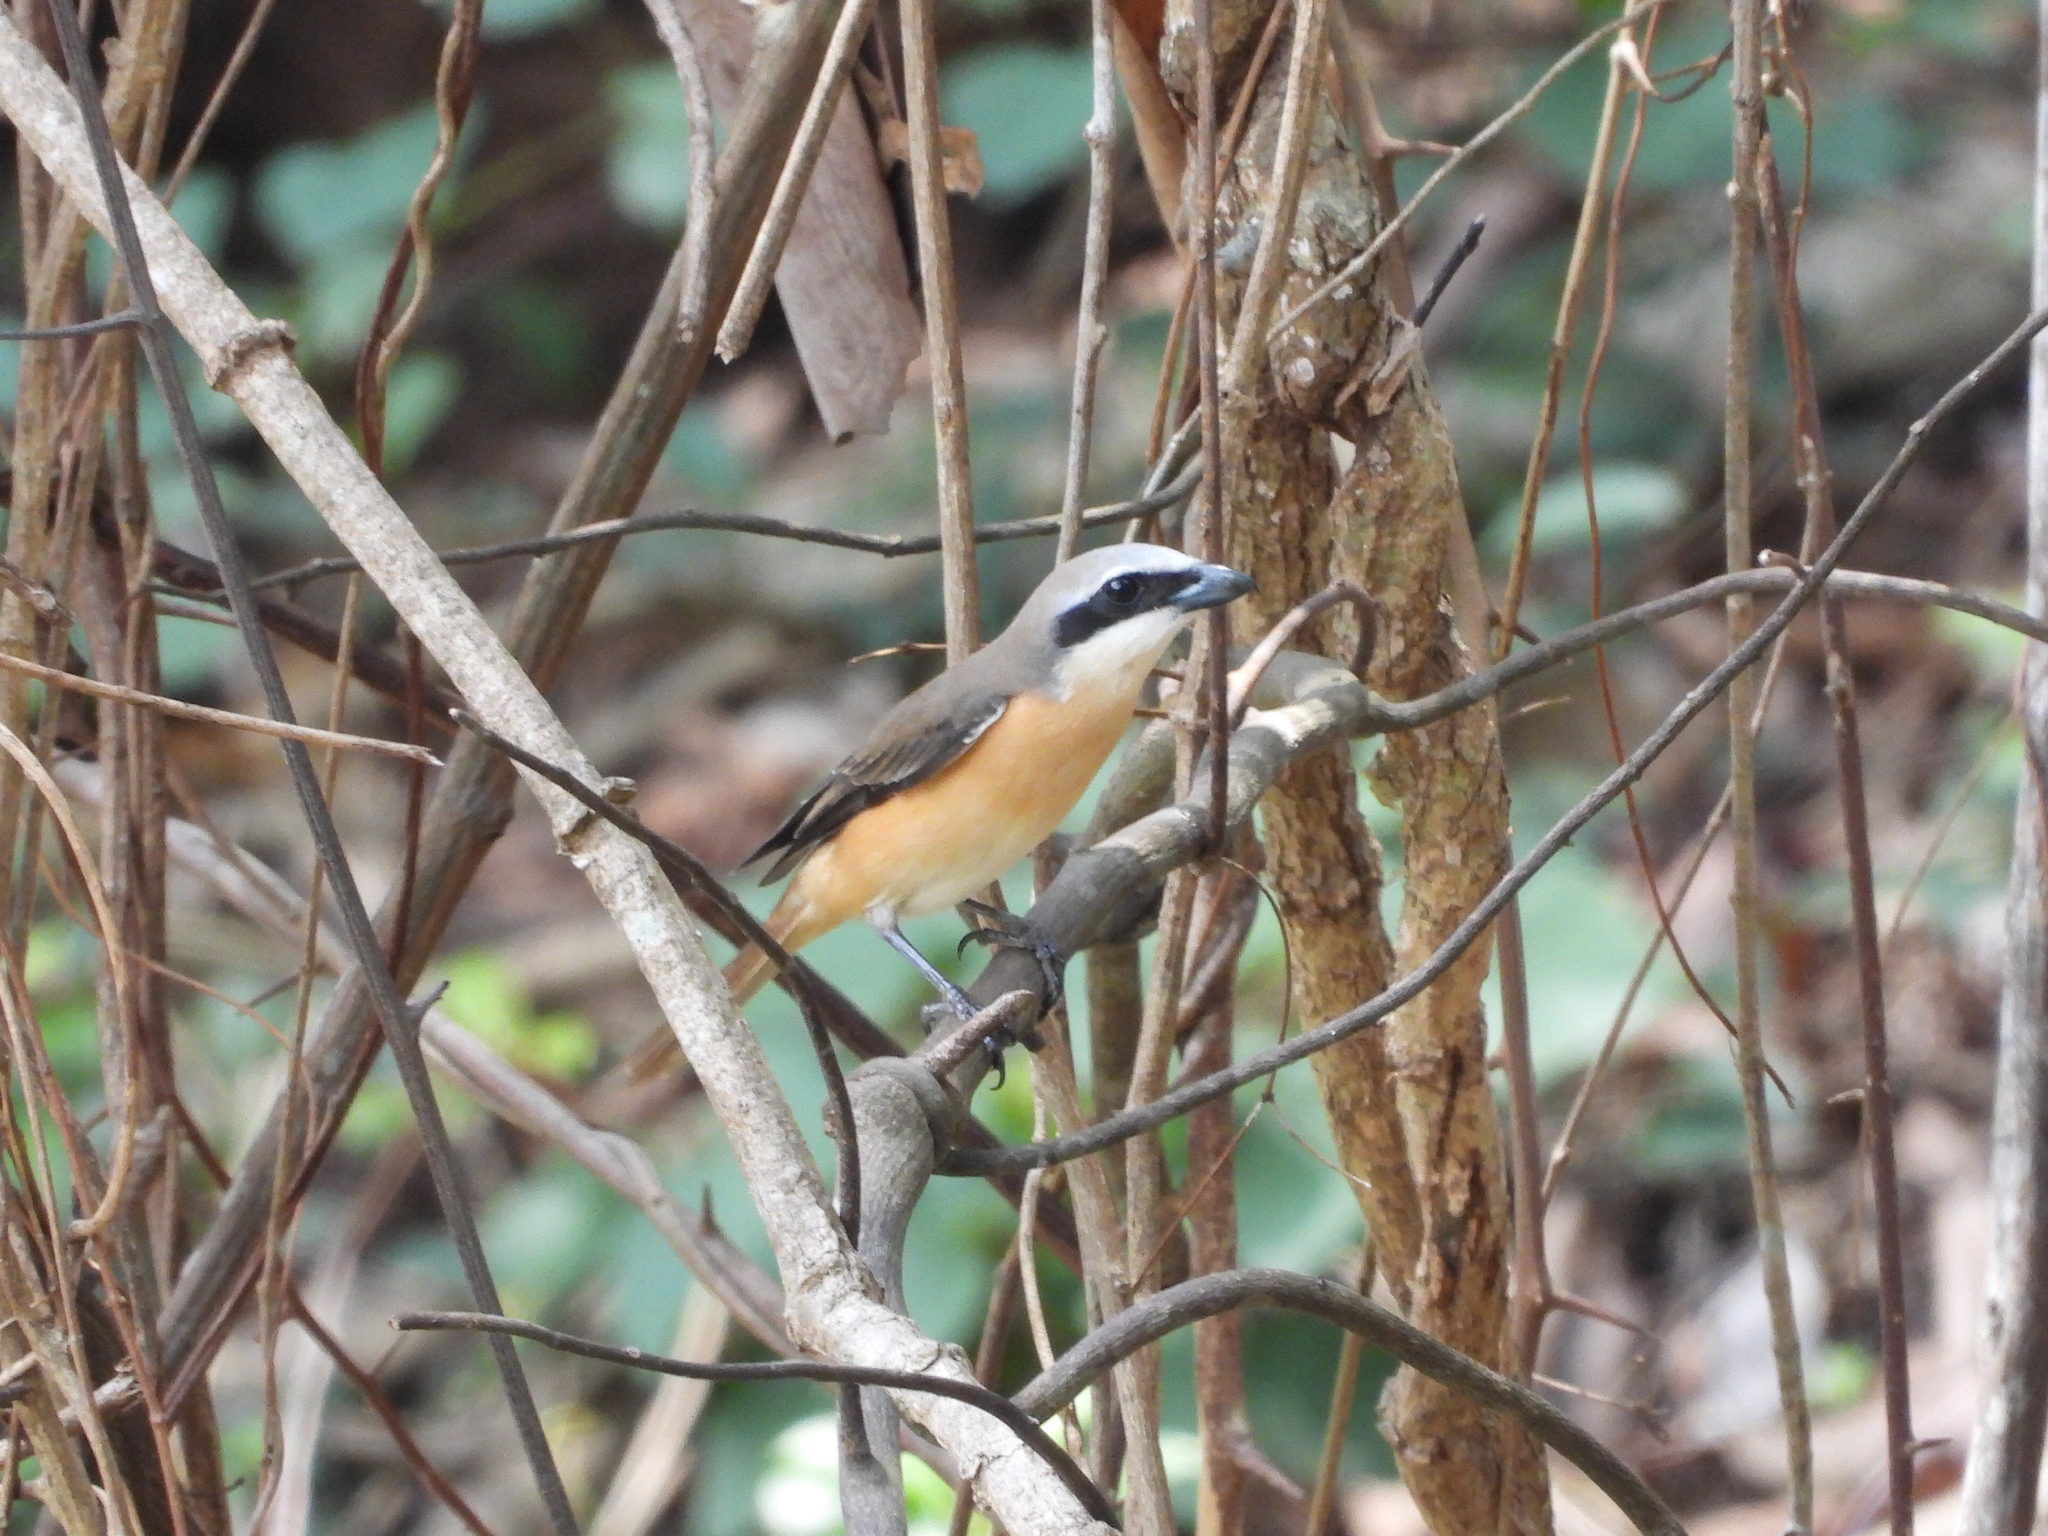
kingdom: Animalia
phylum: Chordata
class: Aves
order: Passeriformes
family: Laniidae
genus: Lanius
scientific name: Lanius cristatus
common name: Brown shrike
